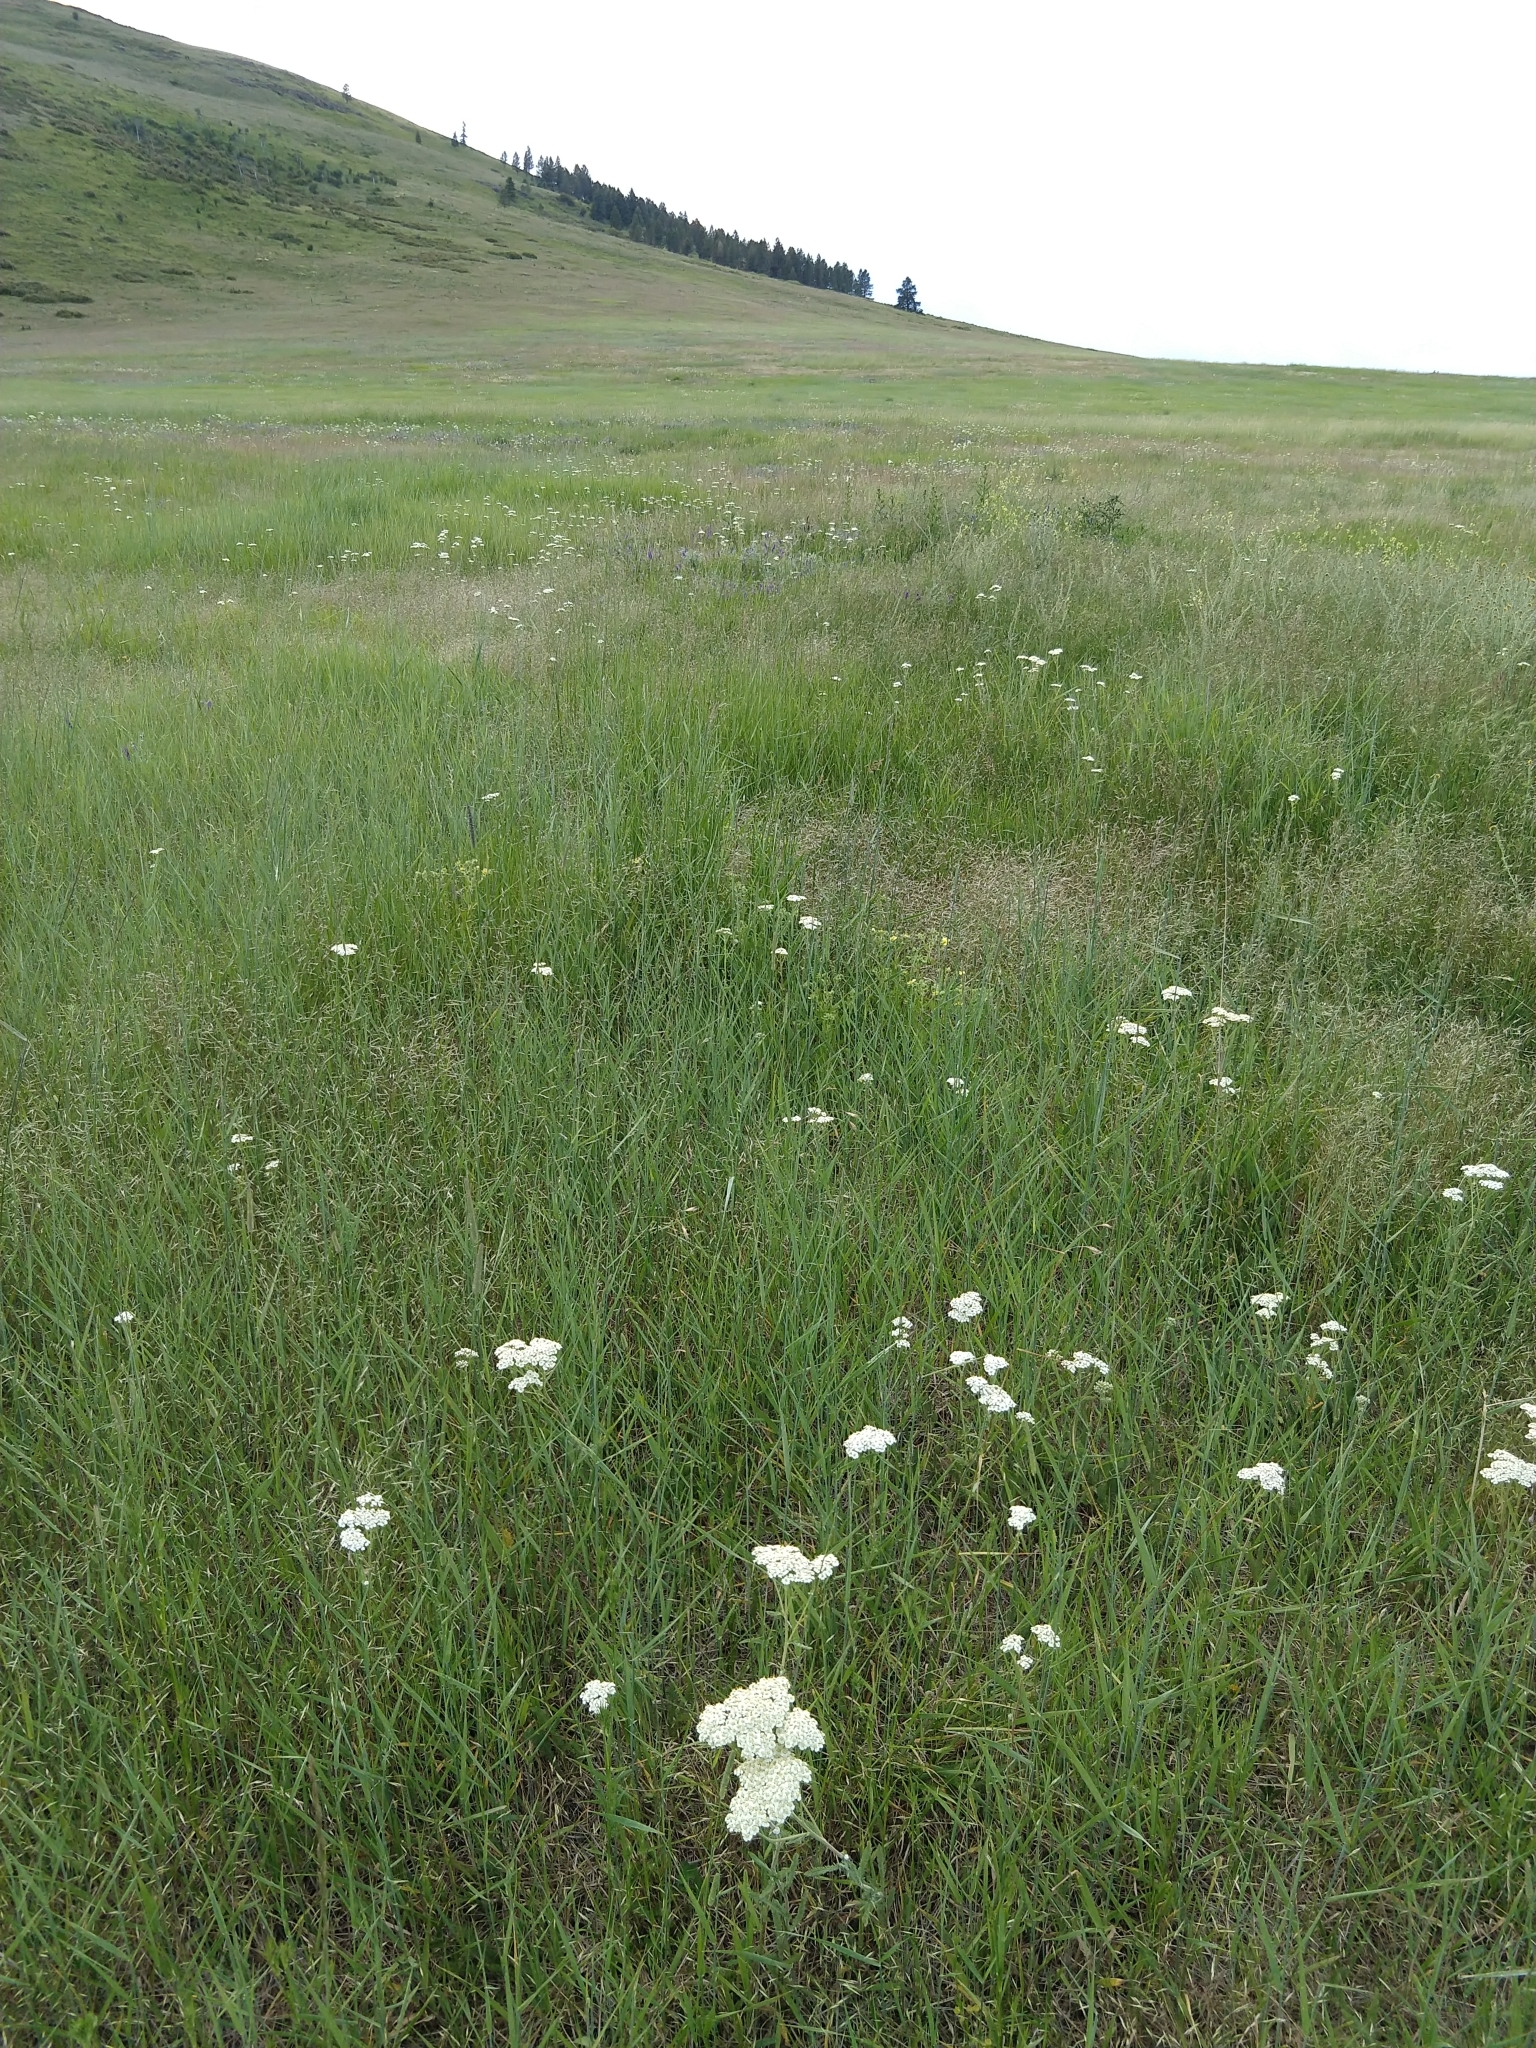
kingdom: Plantae
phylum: Tracheophyta
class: Magnoliopsida
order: Asterales
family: Asteraceae
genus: Achillea
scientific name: Achillea millefolium
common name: Yarrow
